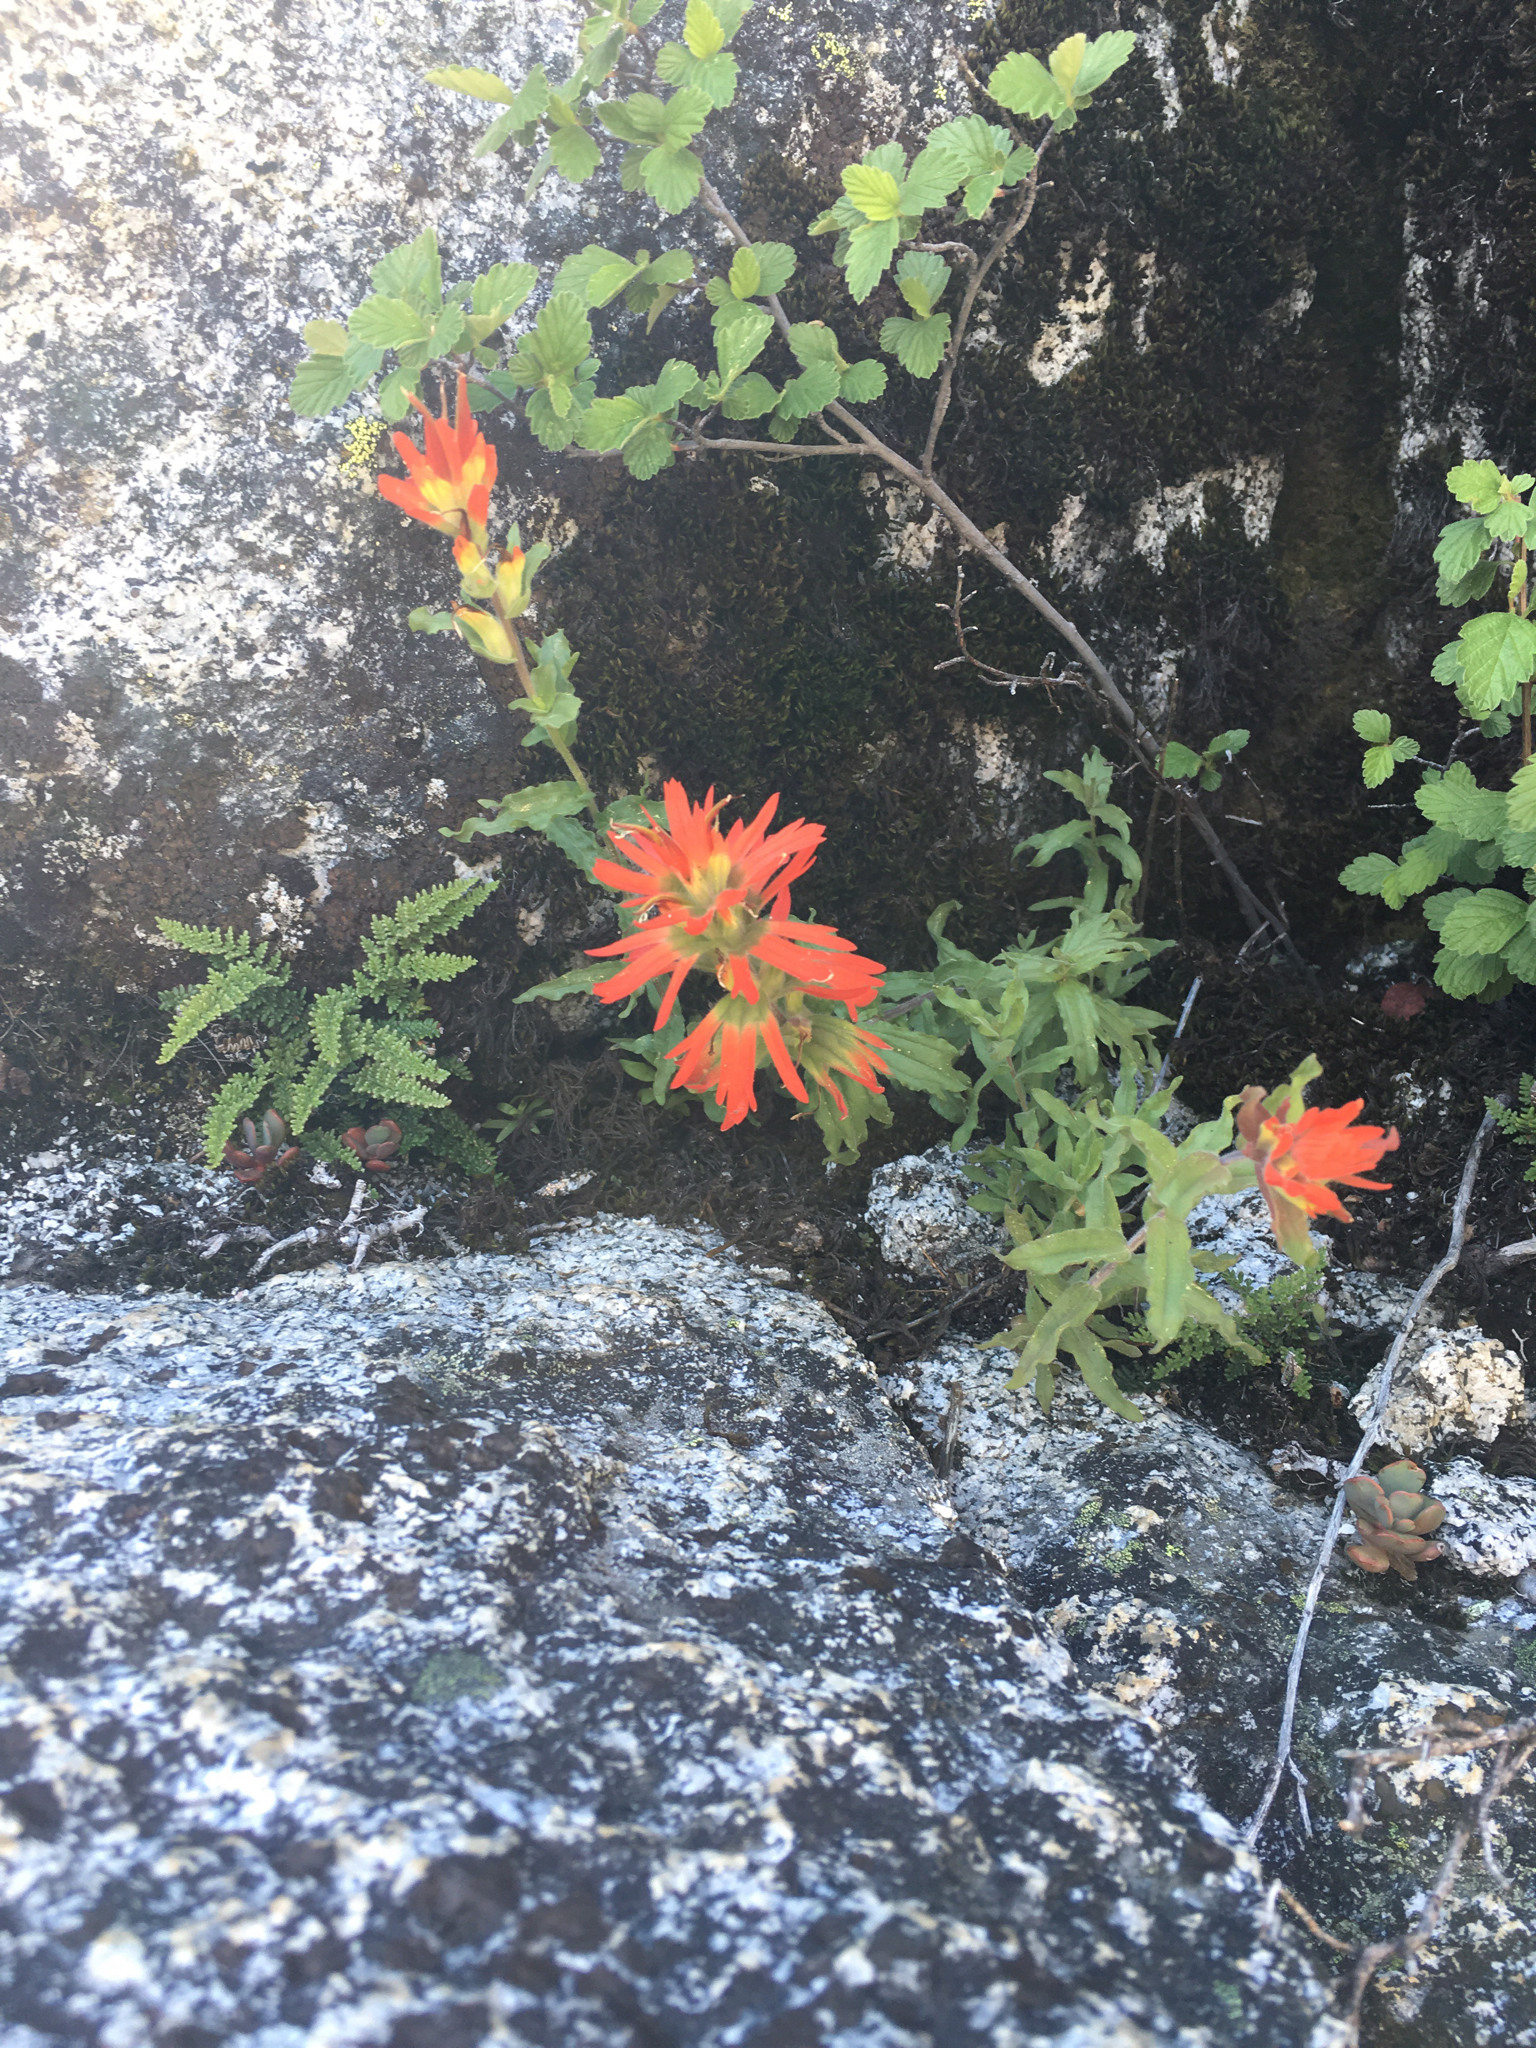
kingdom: Plantae
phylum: Tracheophyta
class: Magnoliopsida
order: Lamiales
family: Orobanchaceae
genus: Castilleja
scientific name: Castilleja applegatei
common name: Wavy-leaf paintbrush
